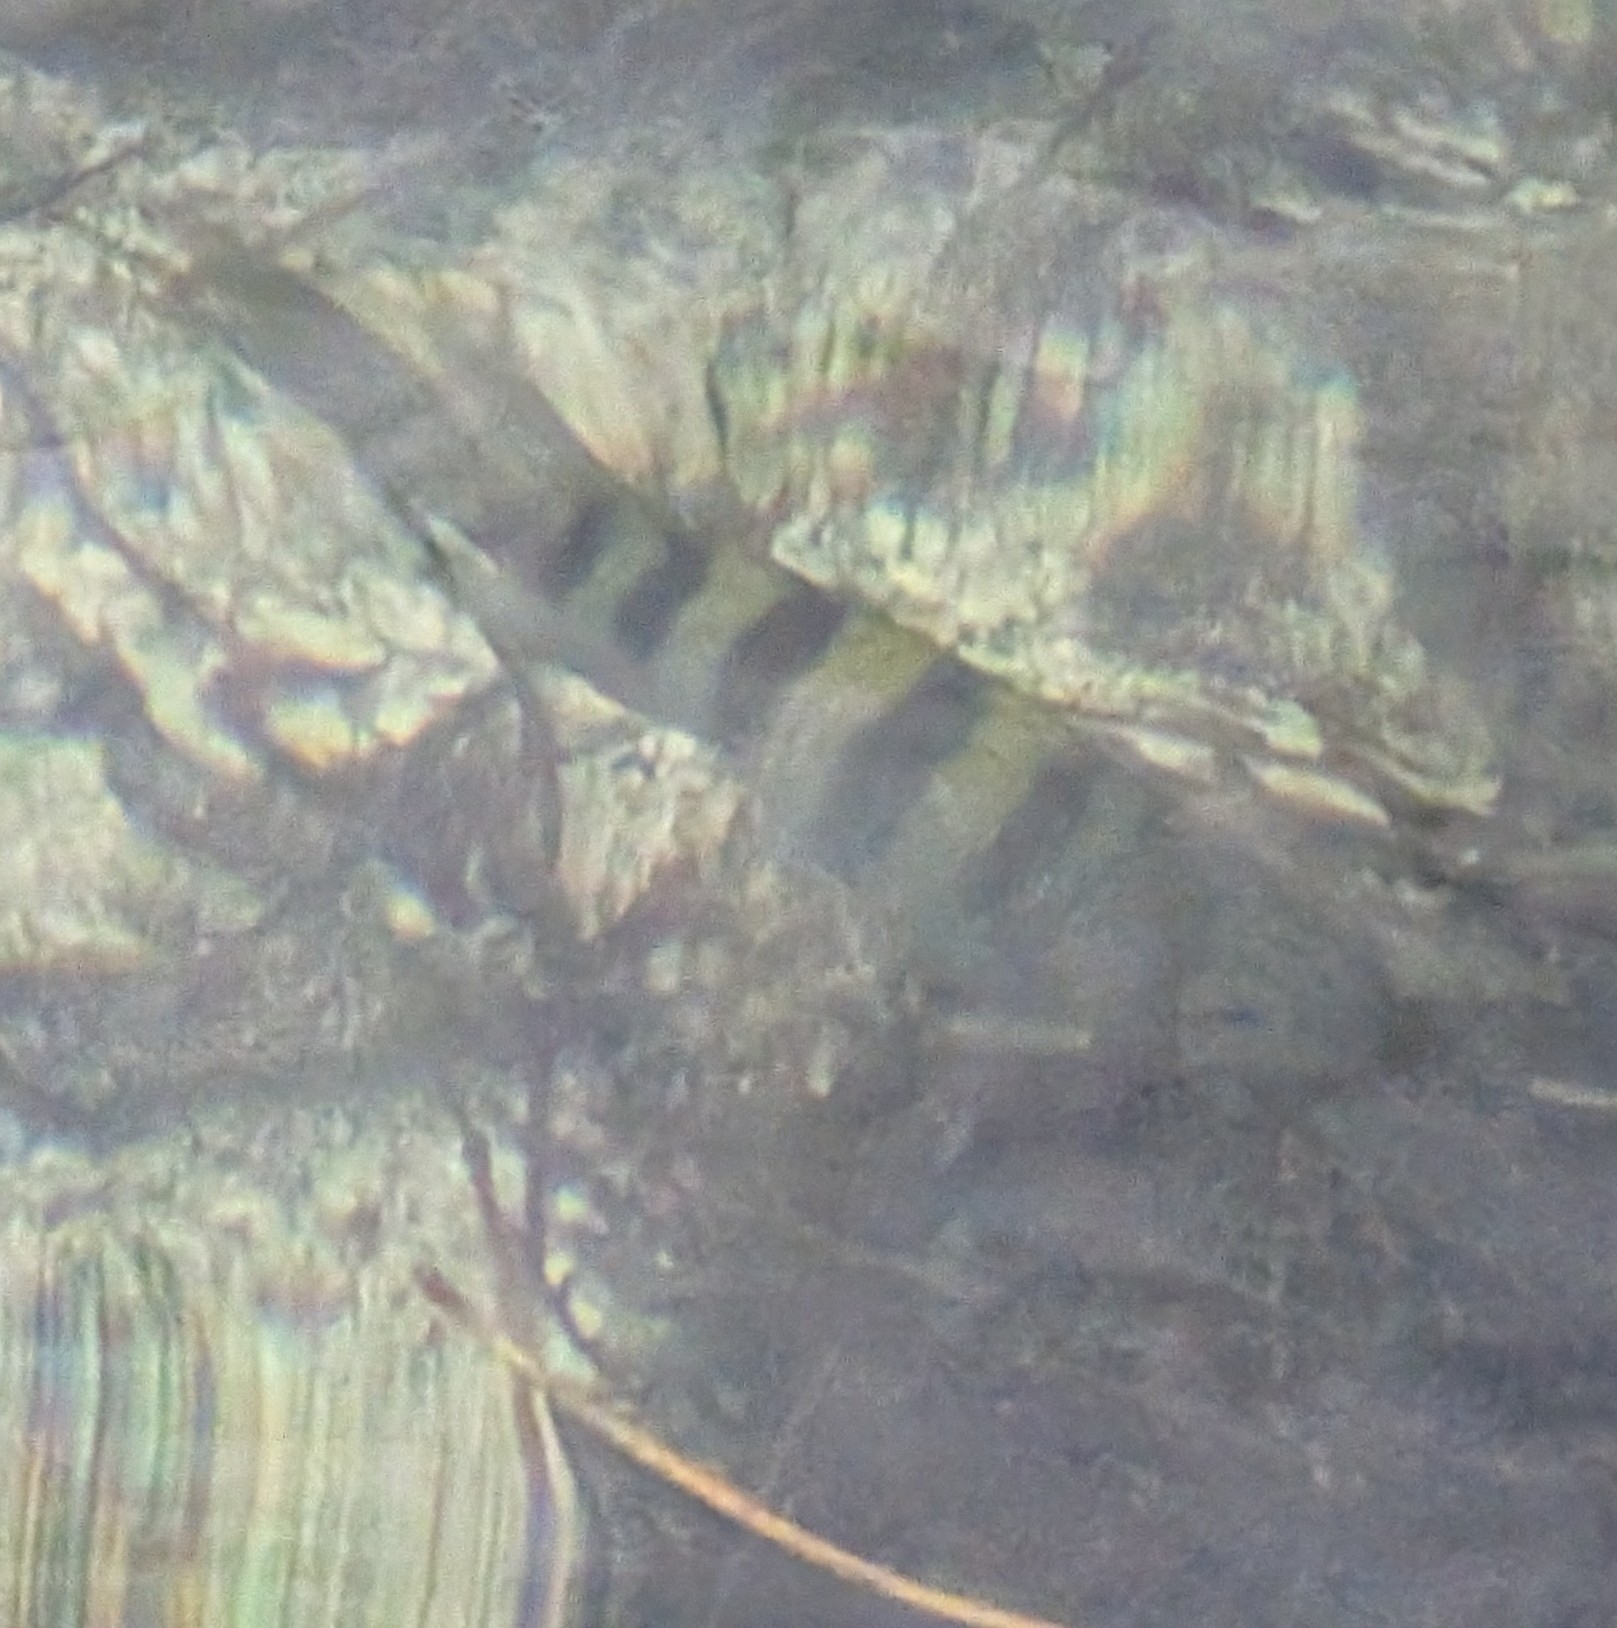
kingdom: Animalia
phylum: Chordata
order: Perciformes
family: Pomacentridae
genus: Abudefduf
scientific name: Abudefduf saxatilis
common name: Sergeant major
